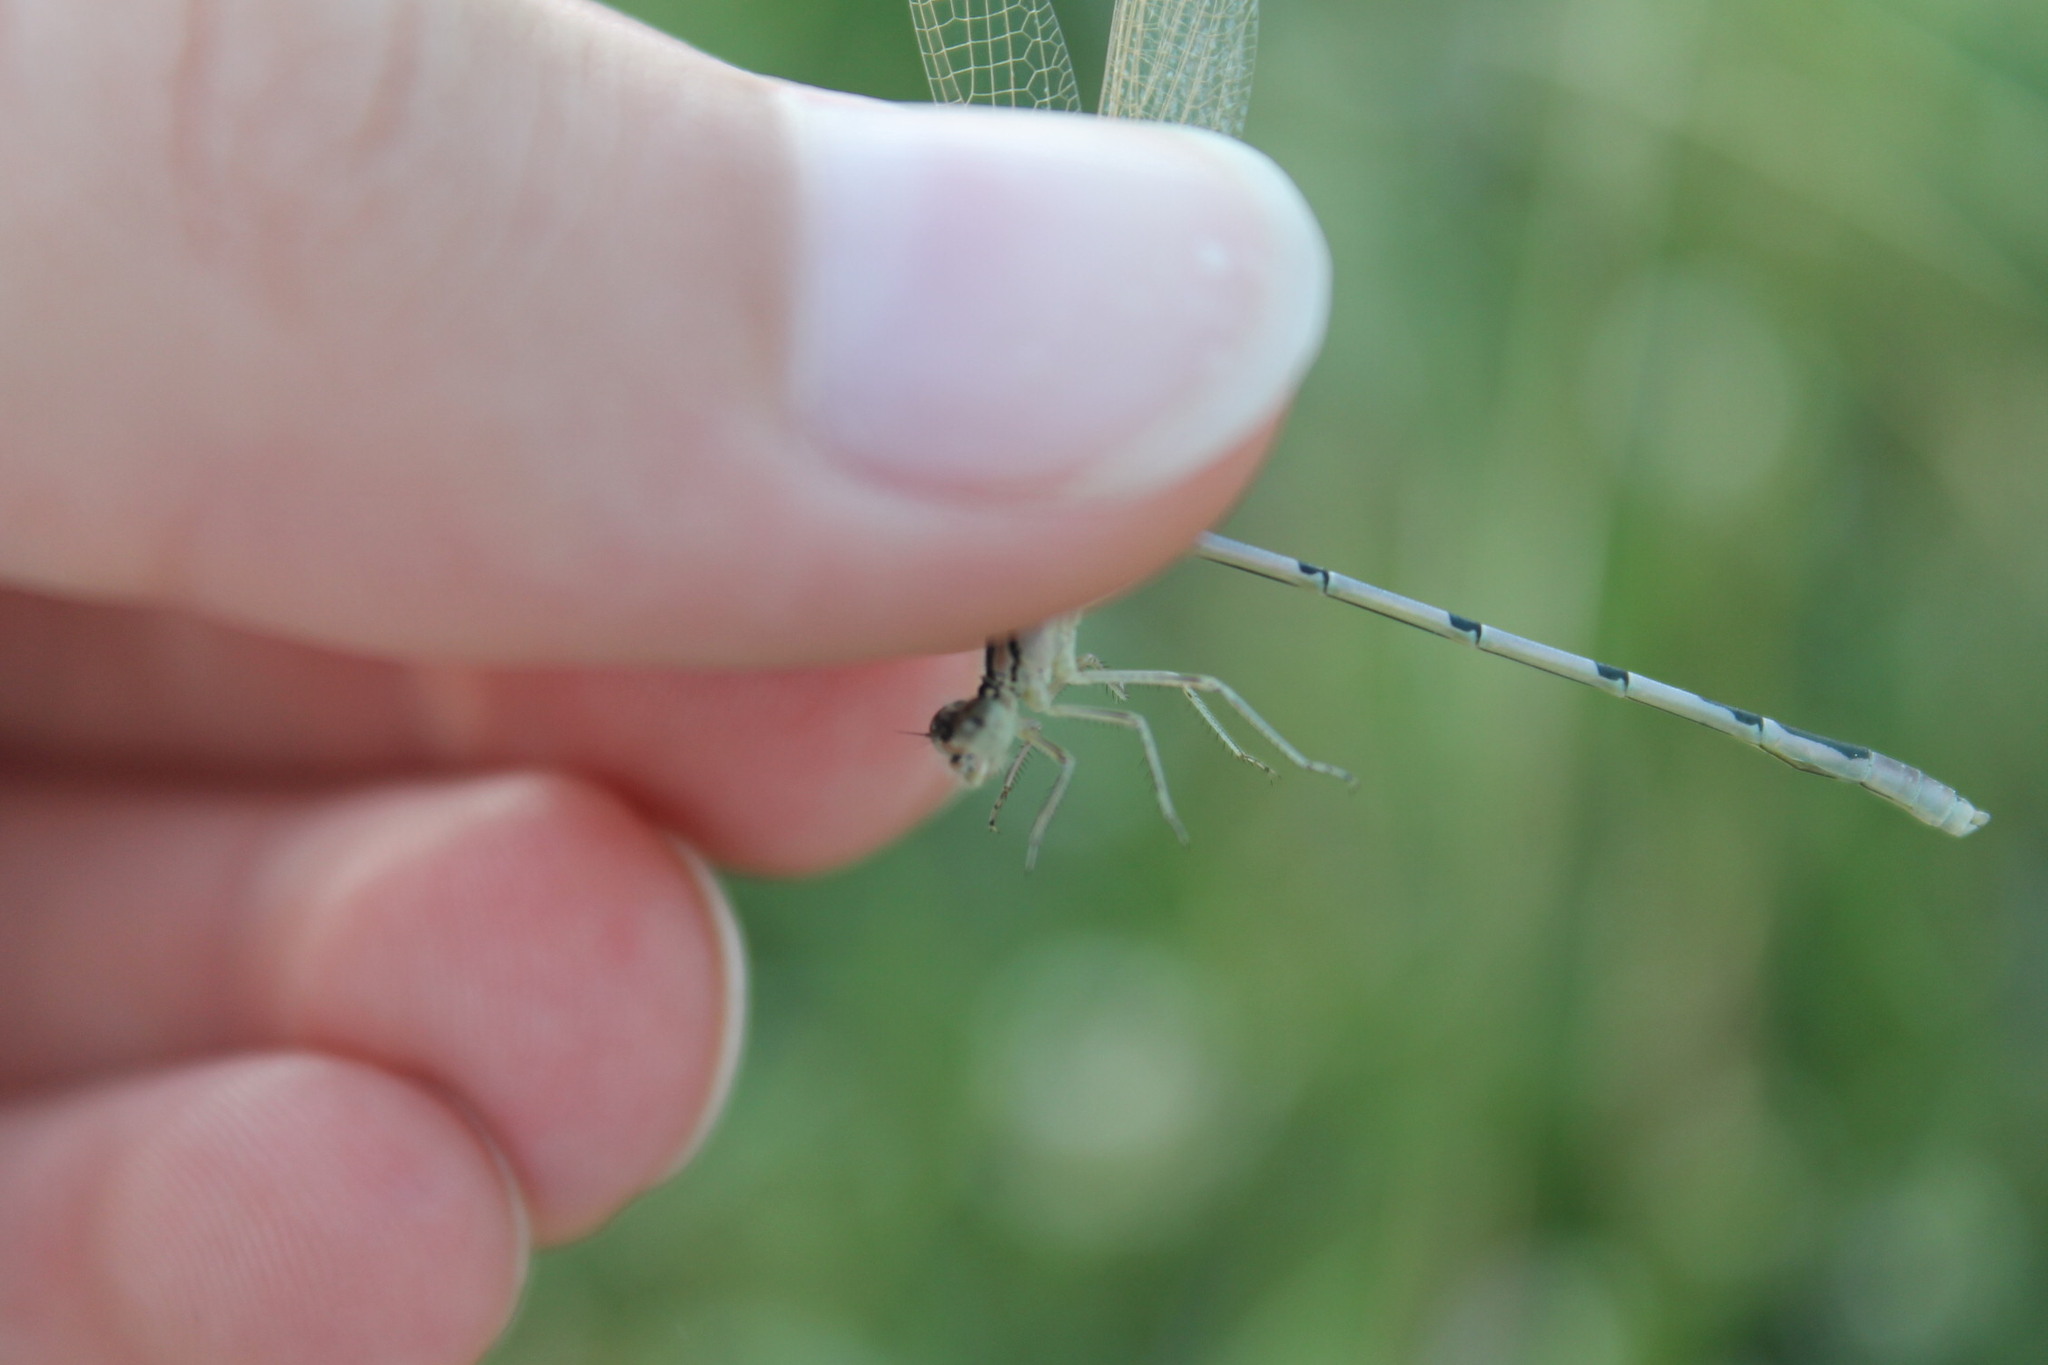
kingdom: Animalia
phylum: Arthropoda
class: Insecta
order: Odonata
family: Coenagrionidae
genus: Enallagma
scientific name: Enallagma civile
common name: Damselfly
